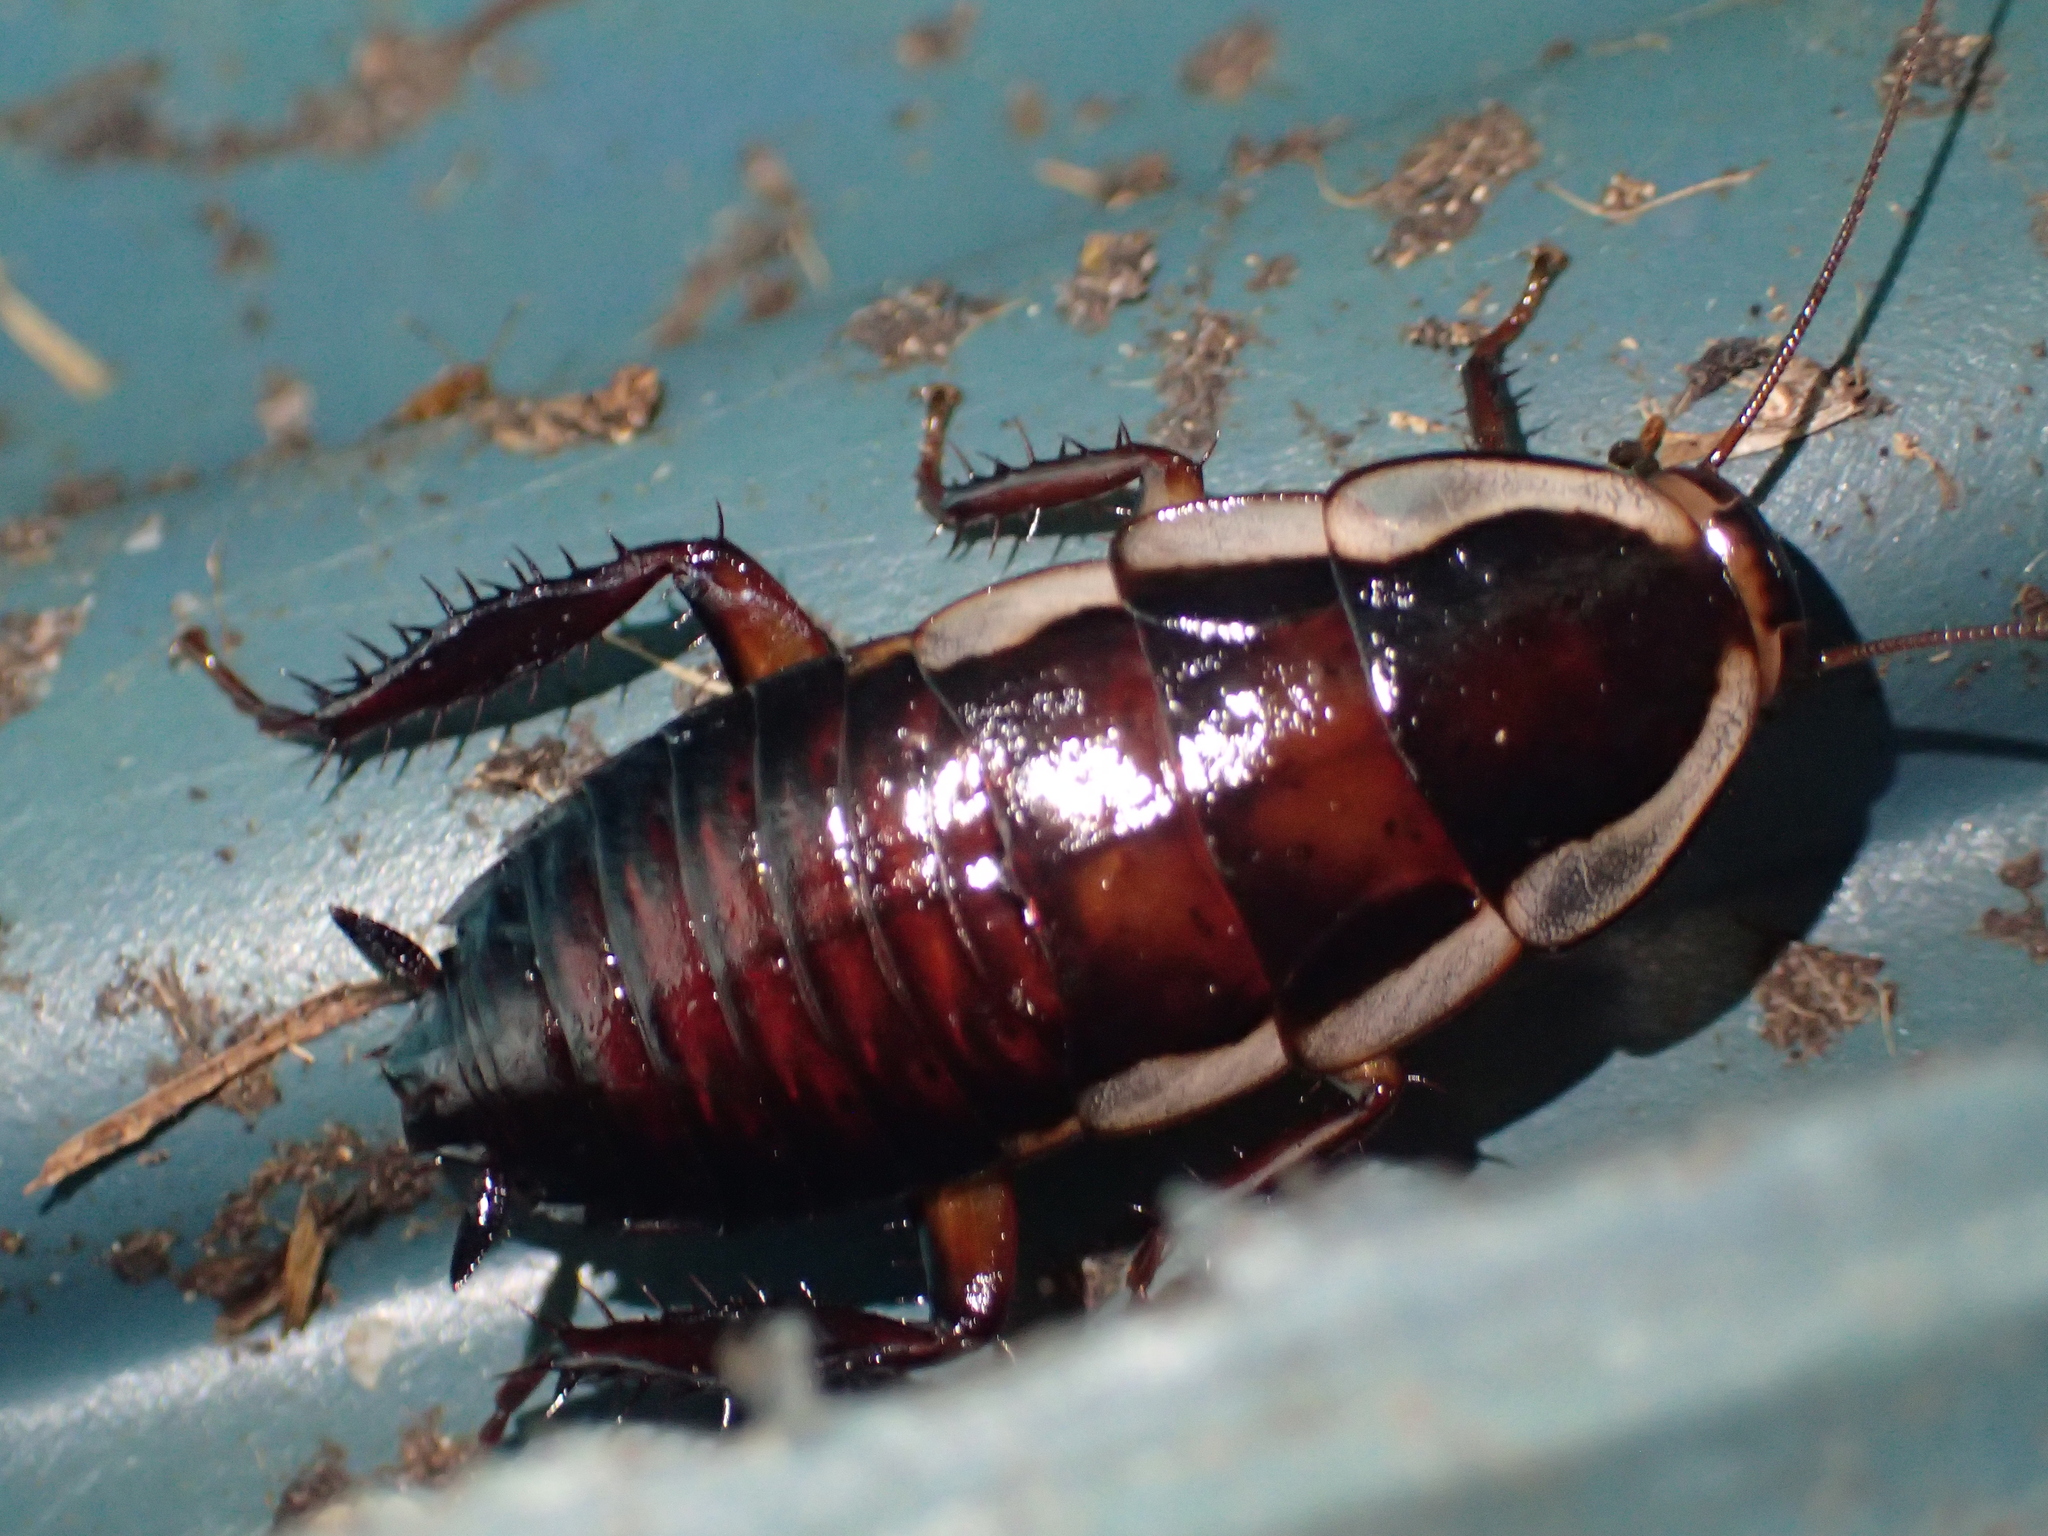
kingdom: Animalia
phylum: Arthropoda
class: Insecta
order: Blattodea
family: Blattidae
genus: Drymaplaneta
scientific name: Drymaplaneta semivitta
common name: Gisborne cockroach
